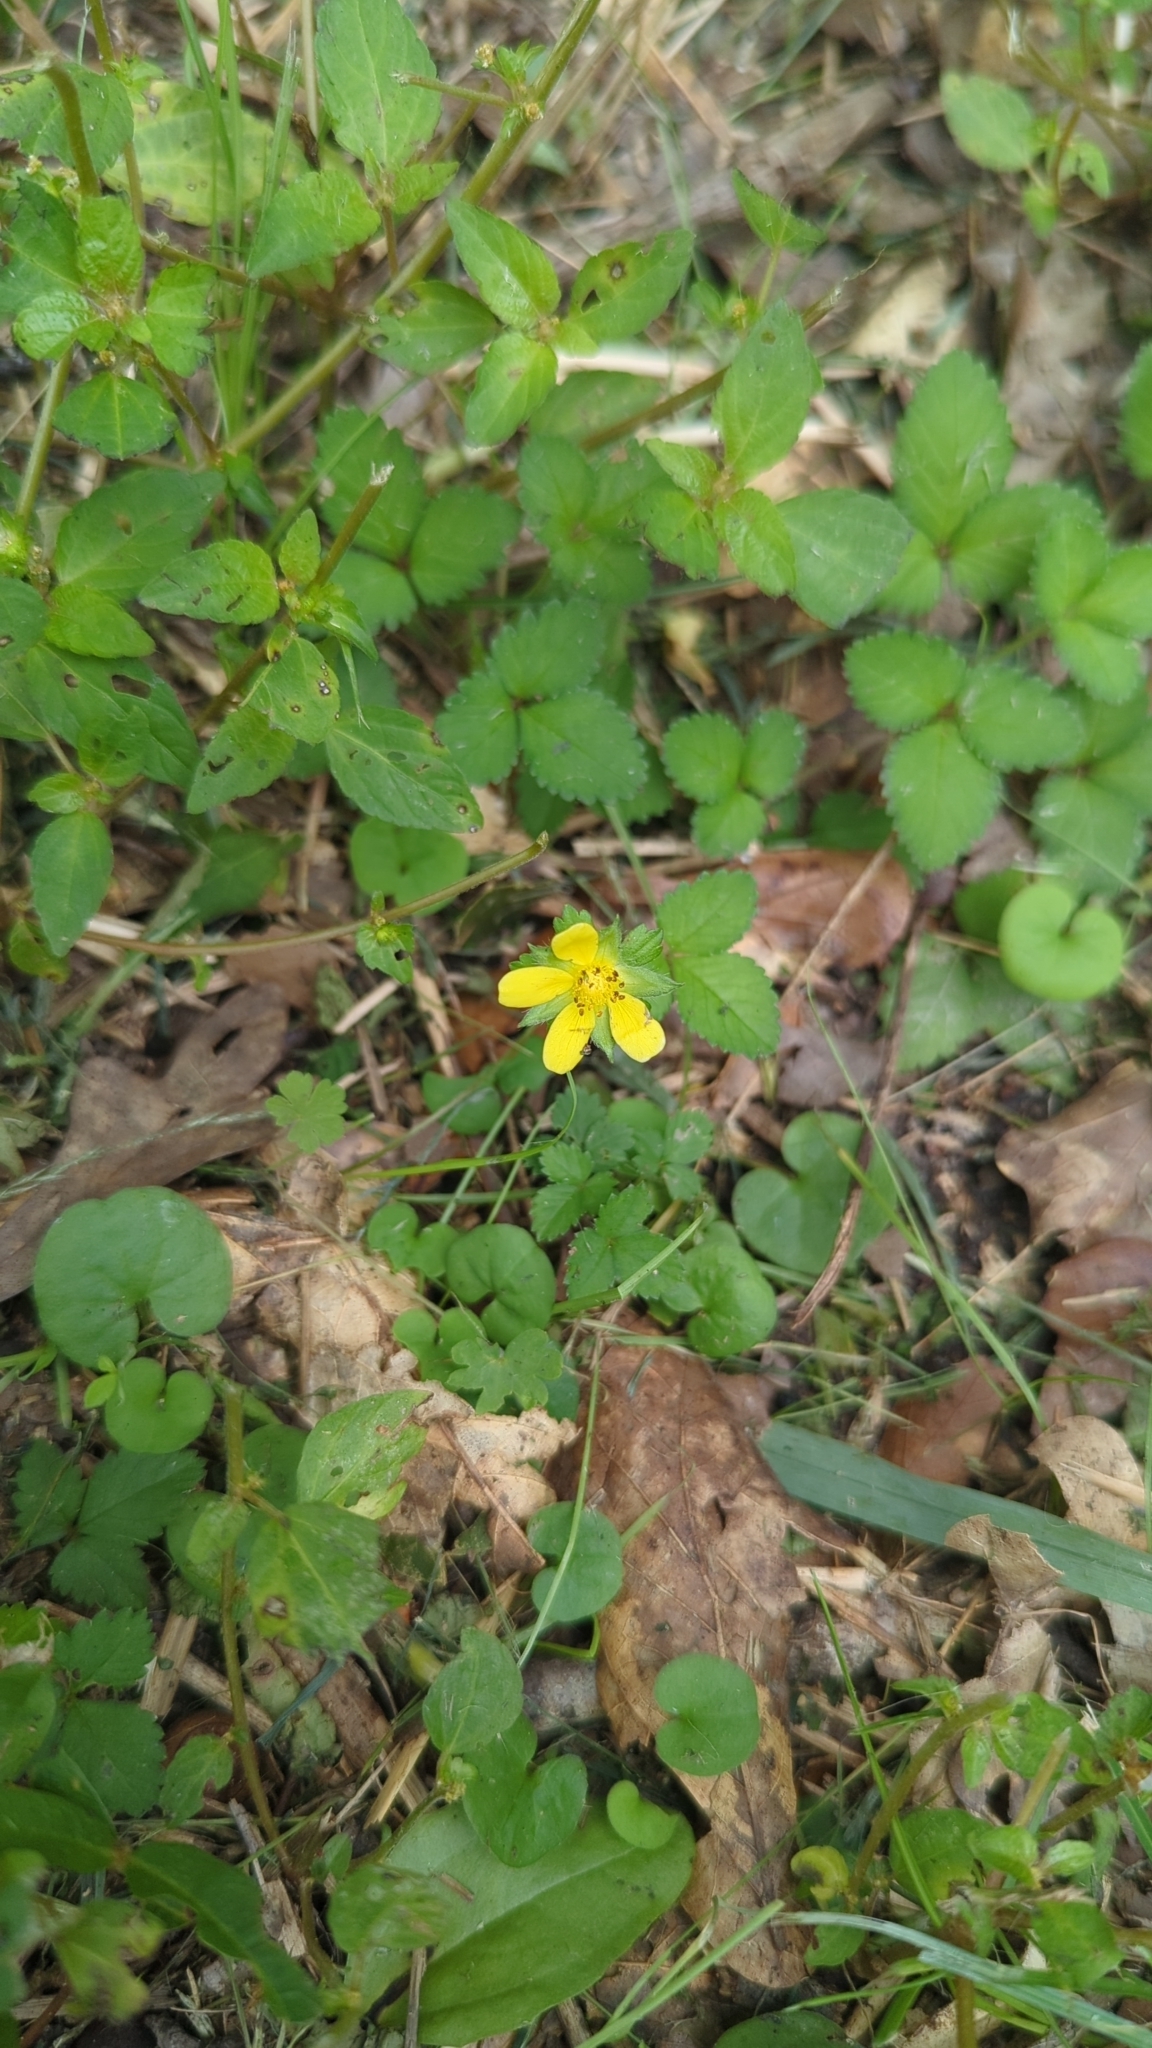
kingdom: Plantae
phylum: Tracheophyta
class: Magnoliopsida
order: Rosales
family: Rosaceae
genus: Potentilla
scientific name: Potentilla indica
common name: Yellow-flowered strawberry
